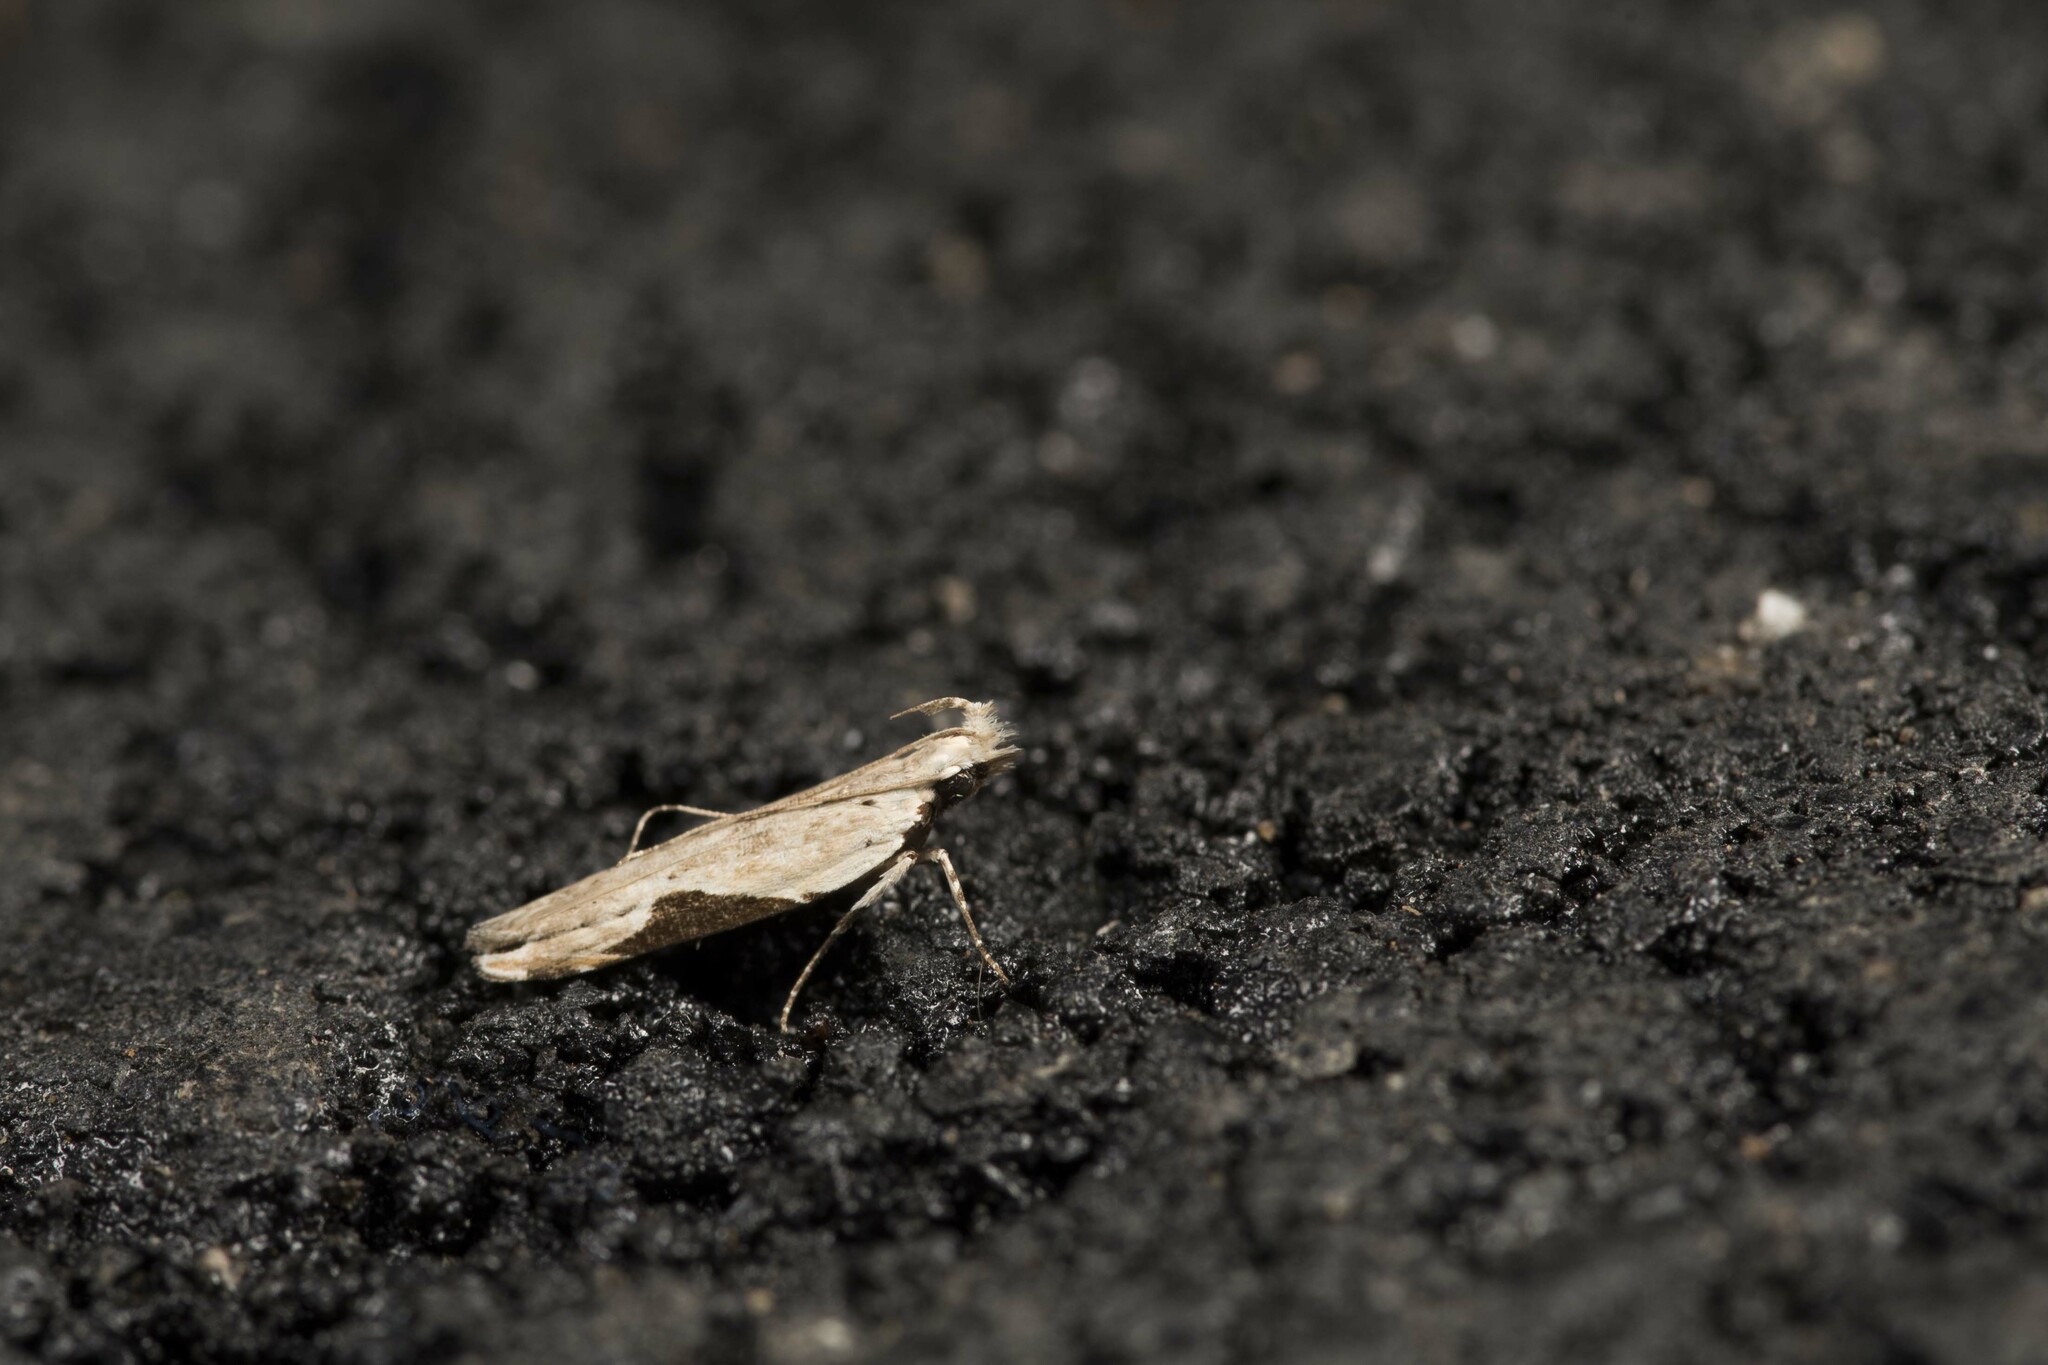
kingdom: Animalia
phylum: Arthropoda
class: Insecta
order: Lepidoptera
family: Gelechiidae
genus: Hypatima
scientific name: Hypatima rhomboidella
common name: Square-spot crest
